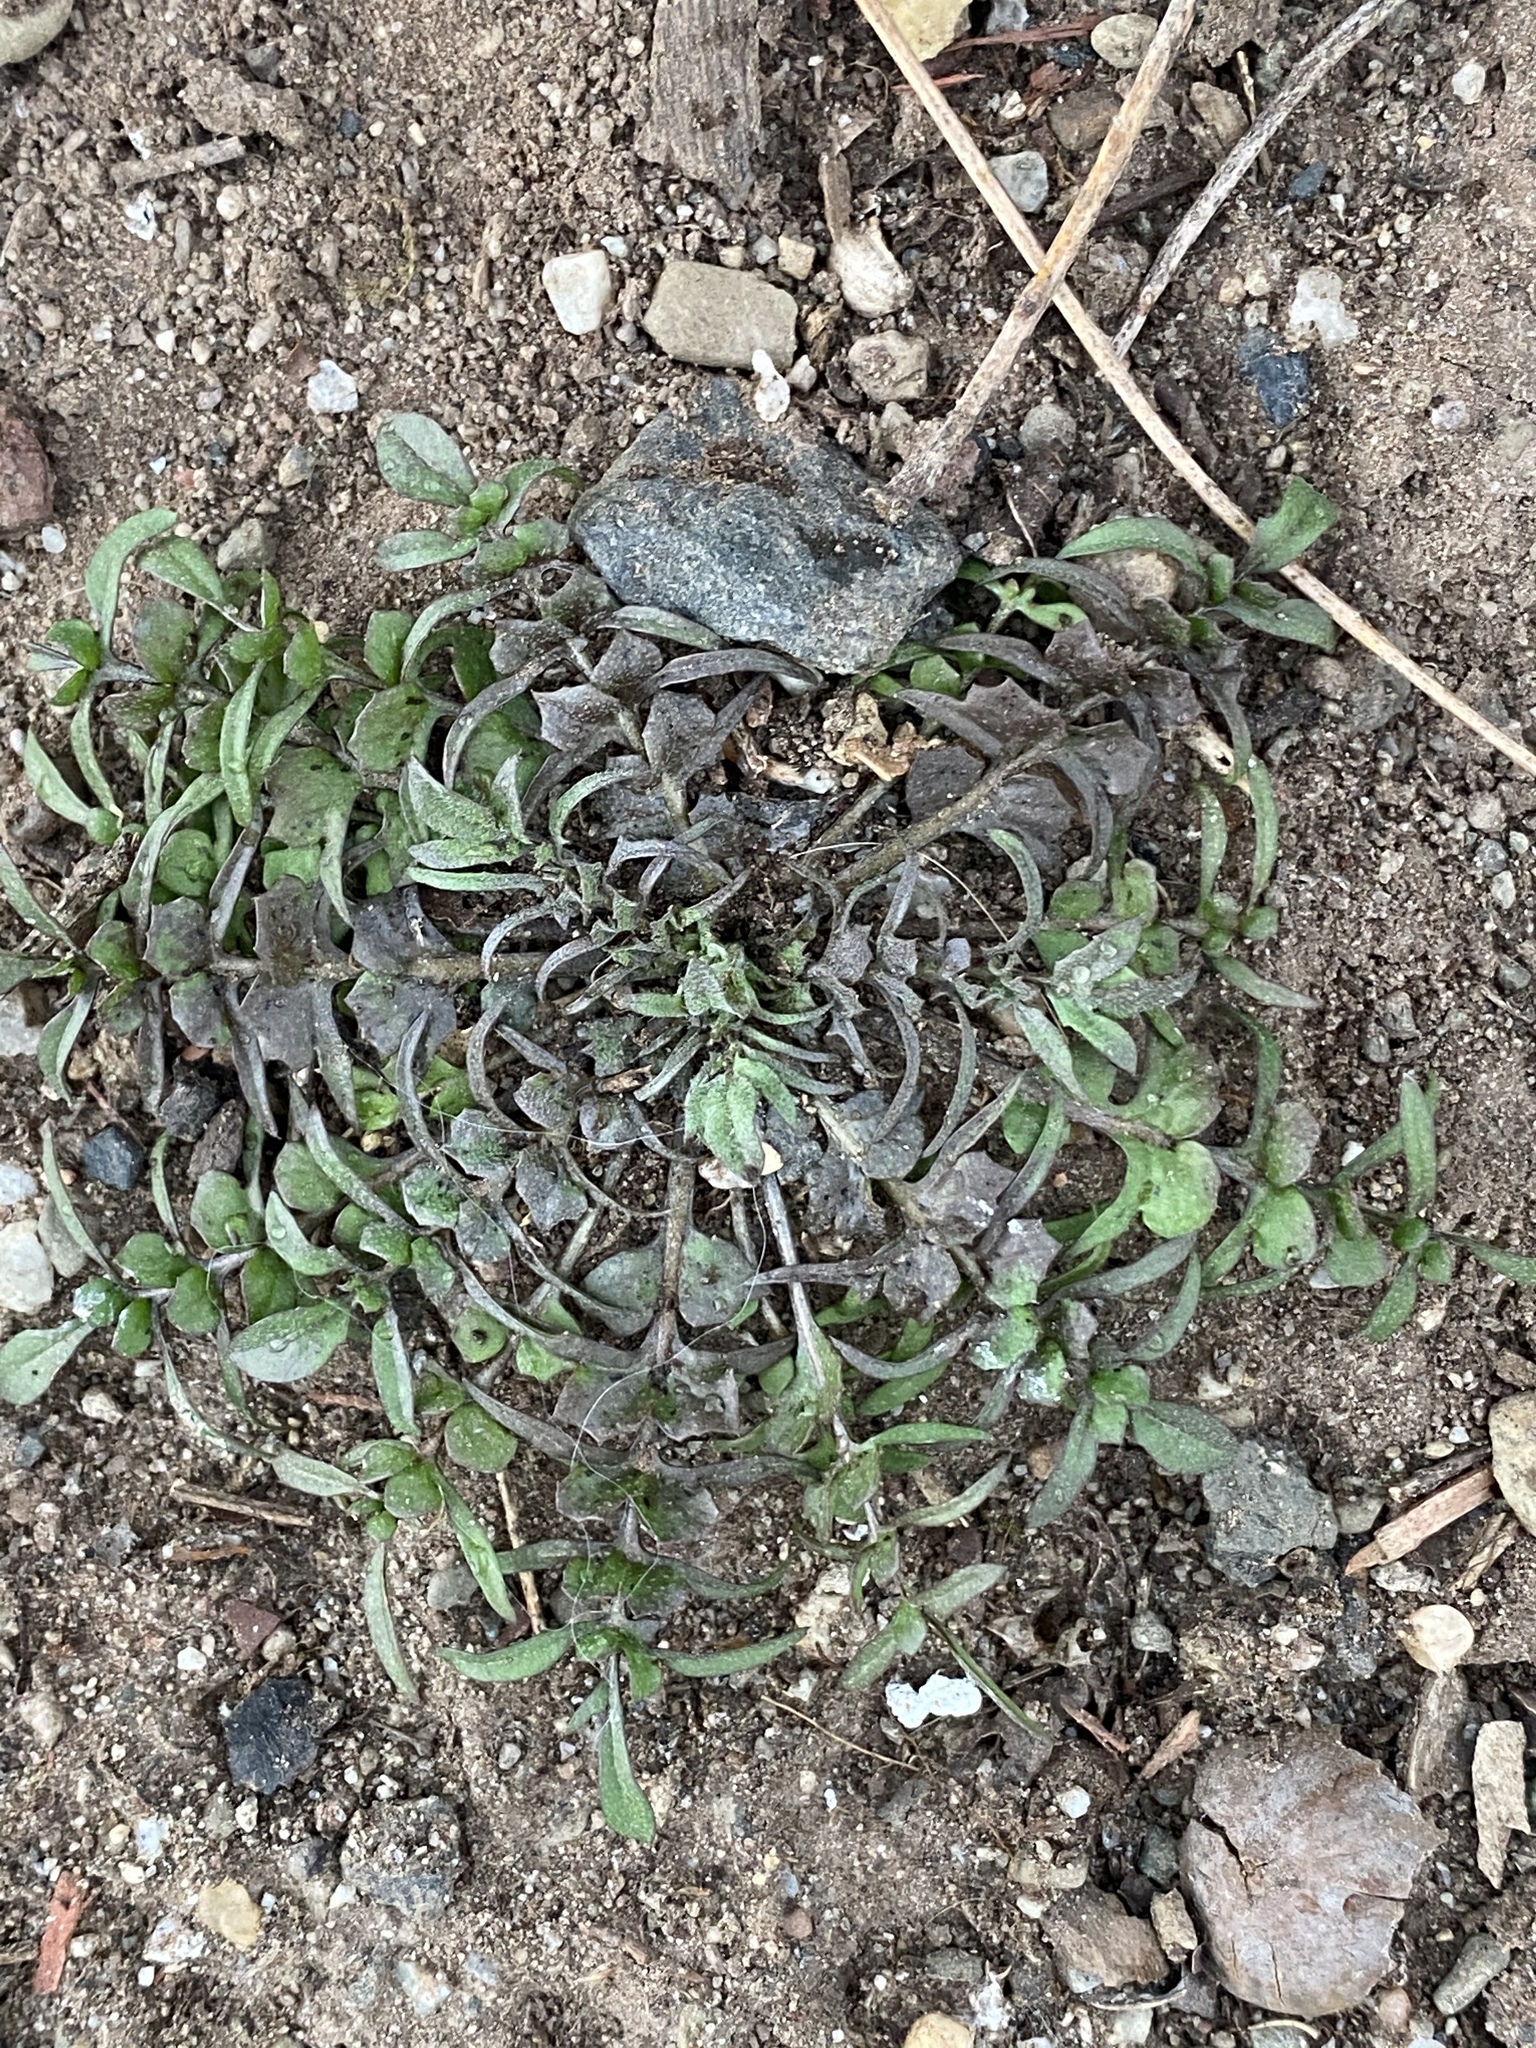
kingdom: Plantae
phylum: Tracheophyta
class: Magnoliopsida
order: Brassicales
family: Brassicaceae
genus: Capsella
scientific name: Capsella bursa-pastoris
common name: Shepherd's purse
